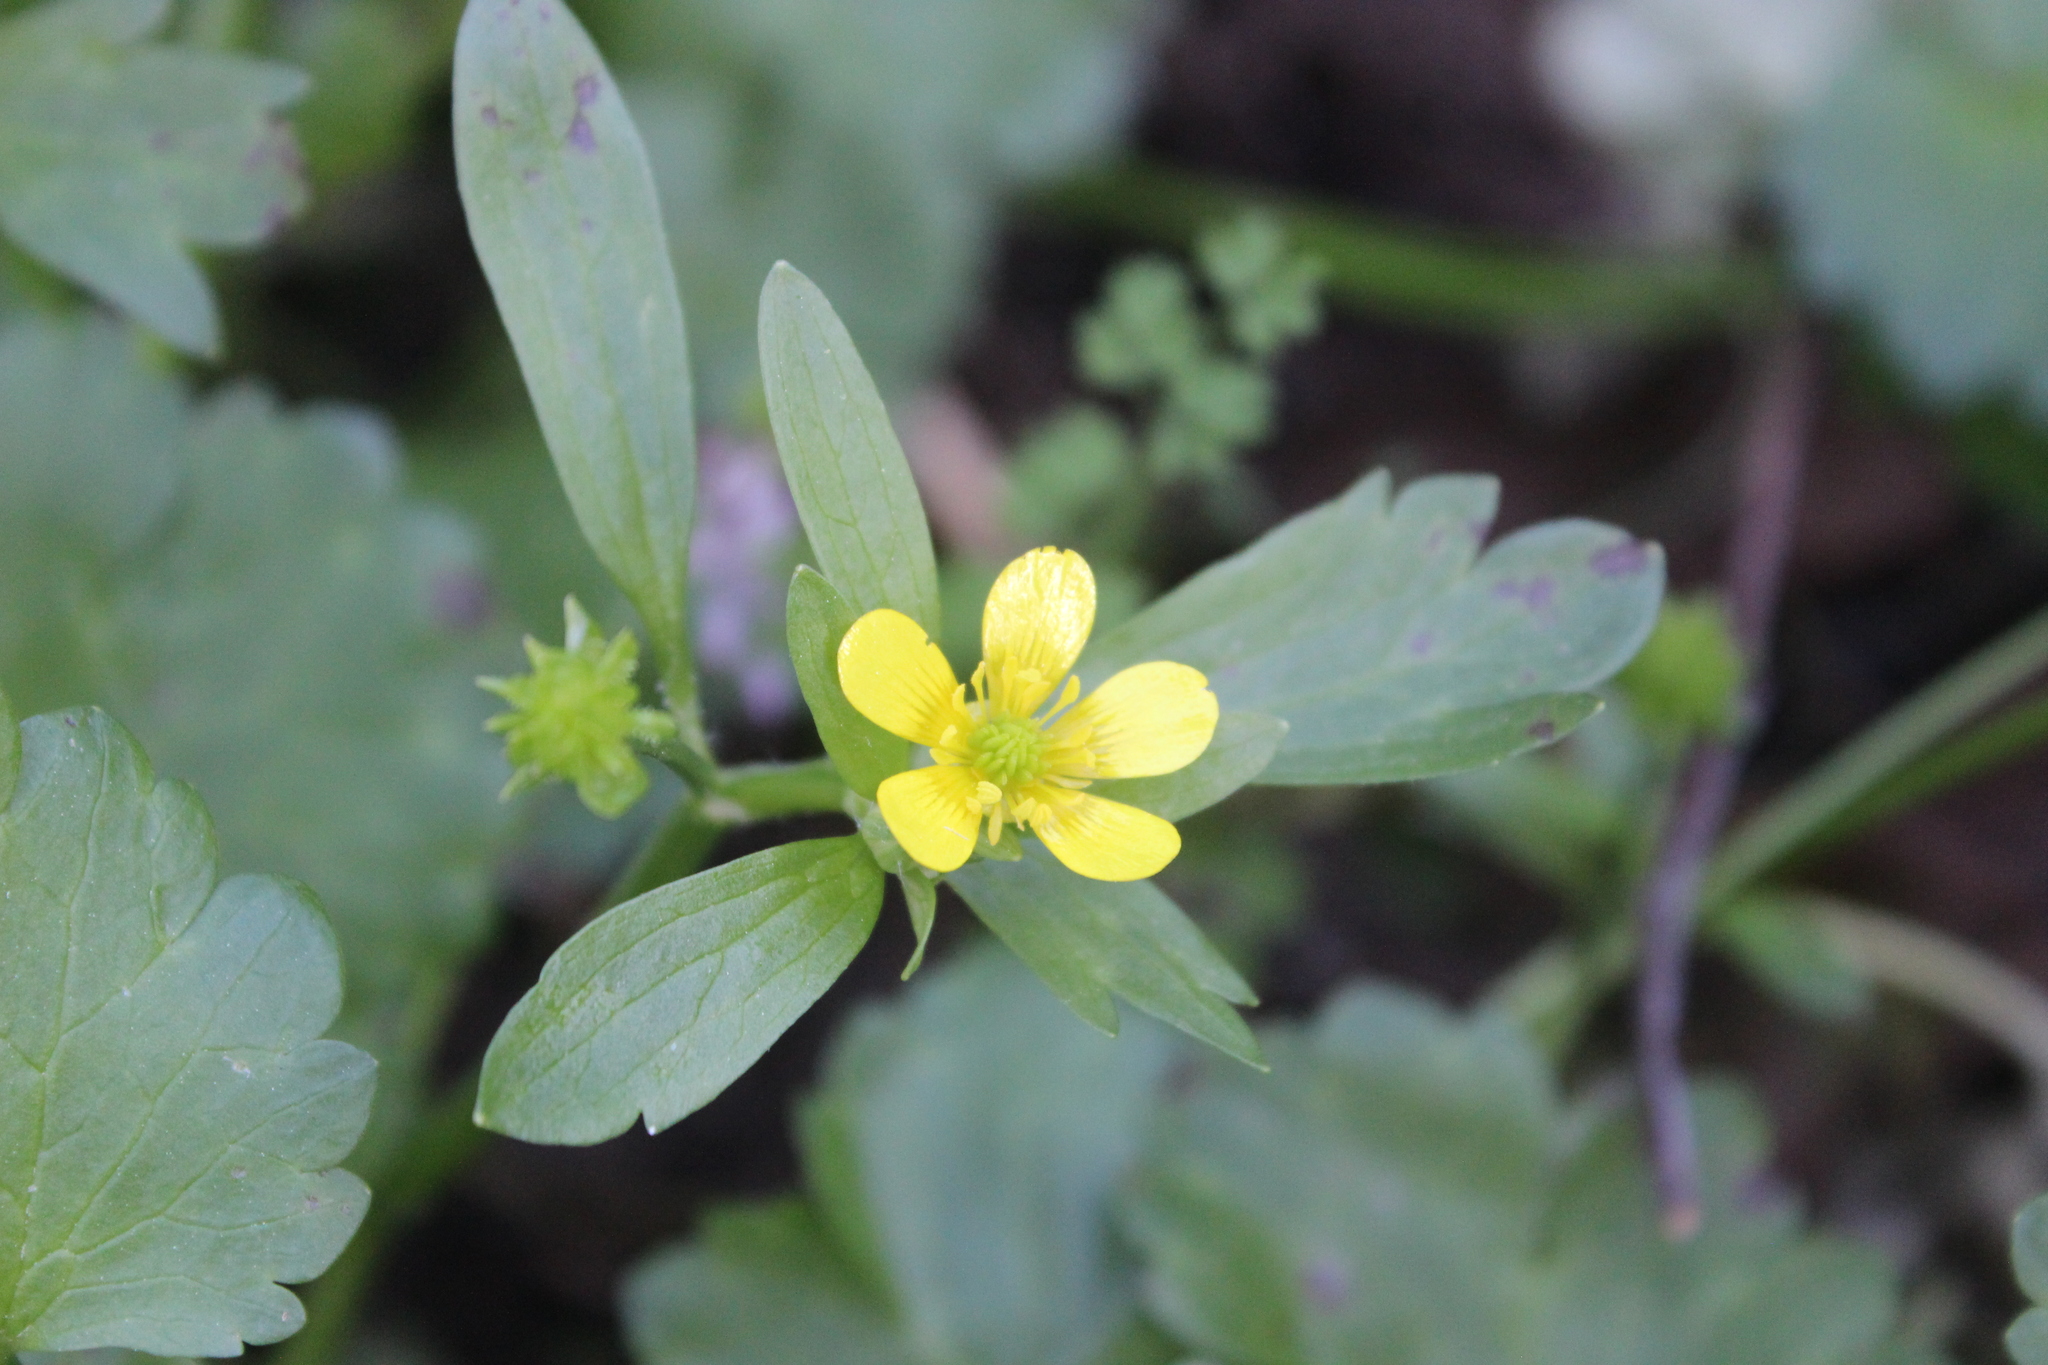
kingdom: Plantae
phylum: Tracheophyta
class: Magnoliopsida
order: Ranunculales
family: Ranunculaceae
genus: Ranunculus
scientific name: Ranunculus muricatus
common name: Rough-fruited buttercup
